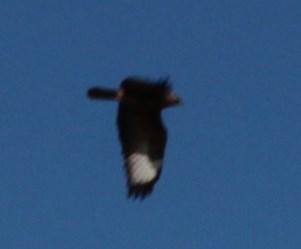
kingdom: Animalia
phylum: Chordata
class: Aves
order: Accipitriformes
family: Accipitridae
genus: Buteo
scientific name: Buteo rufofuscus
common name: Jackal buzzard
